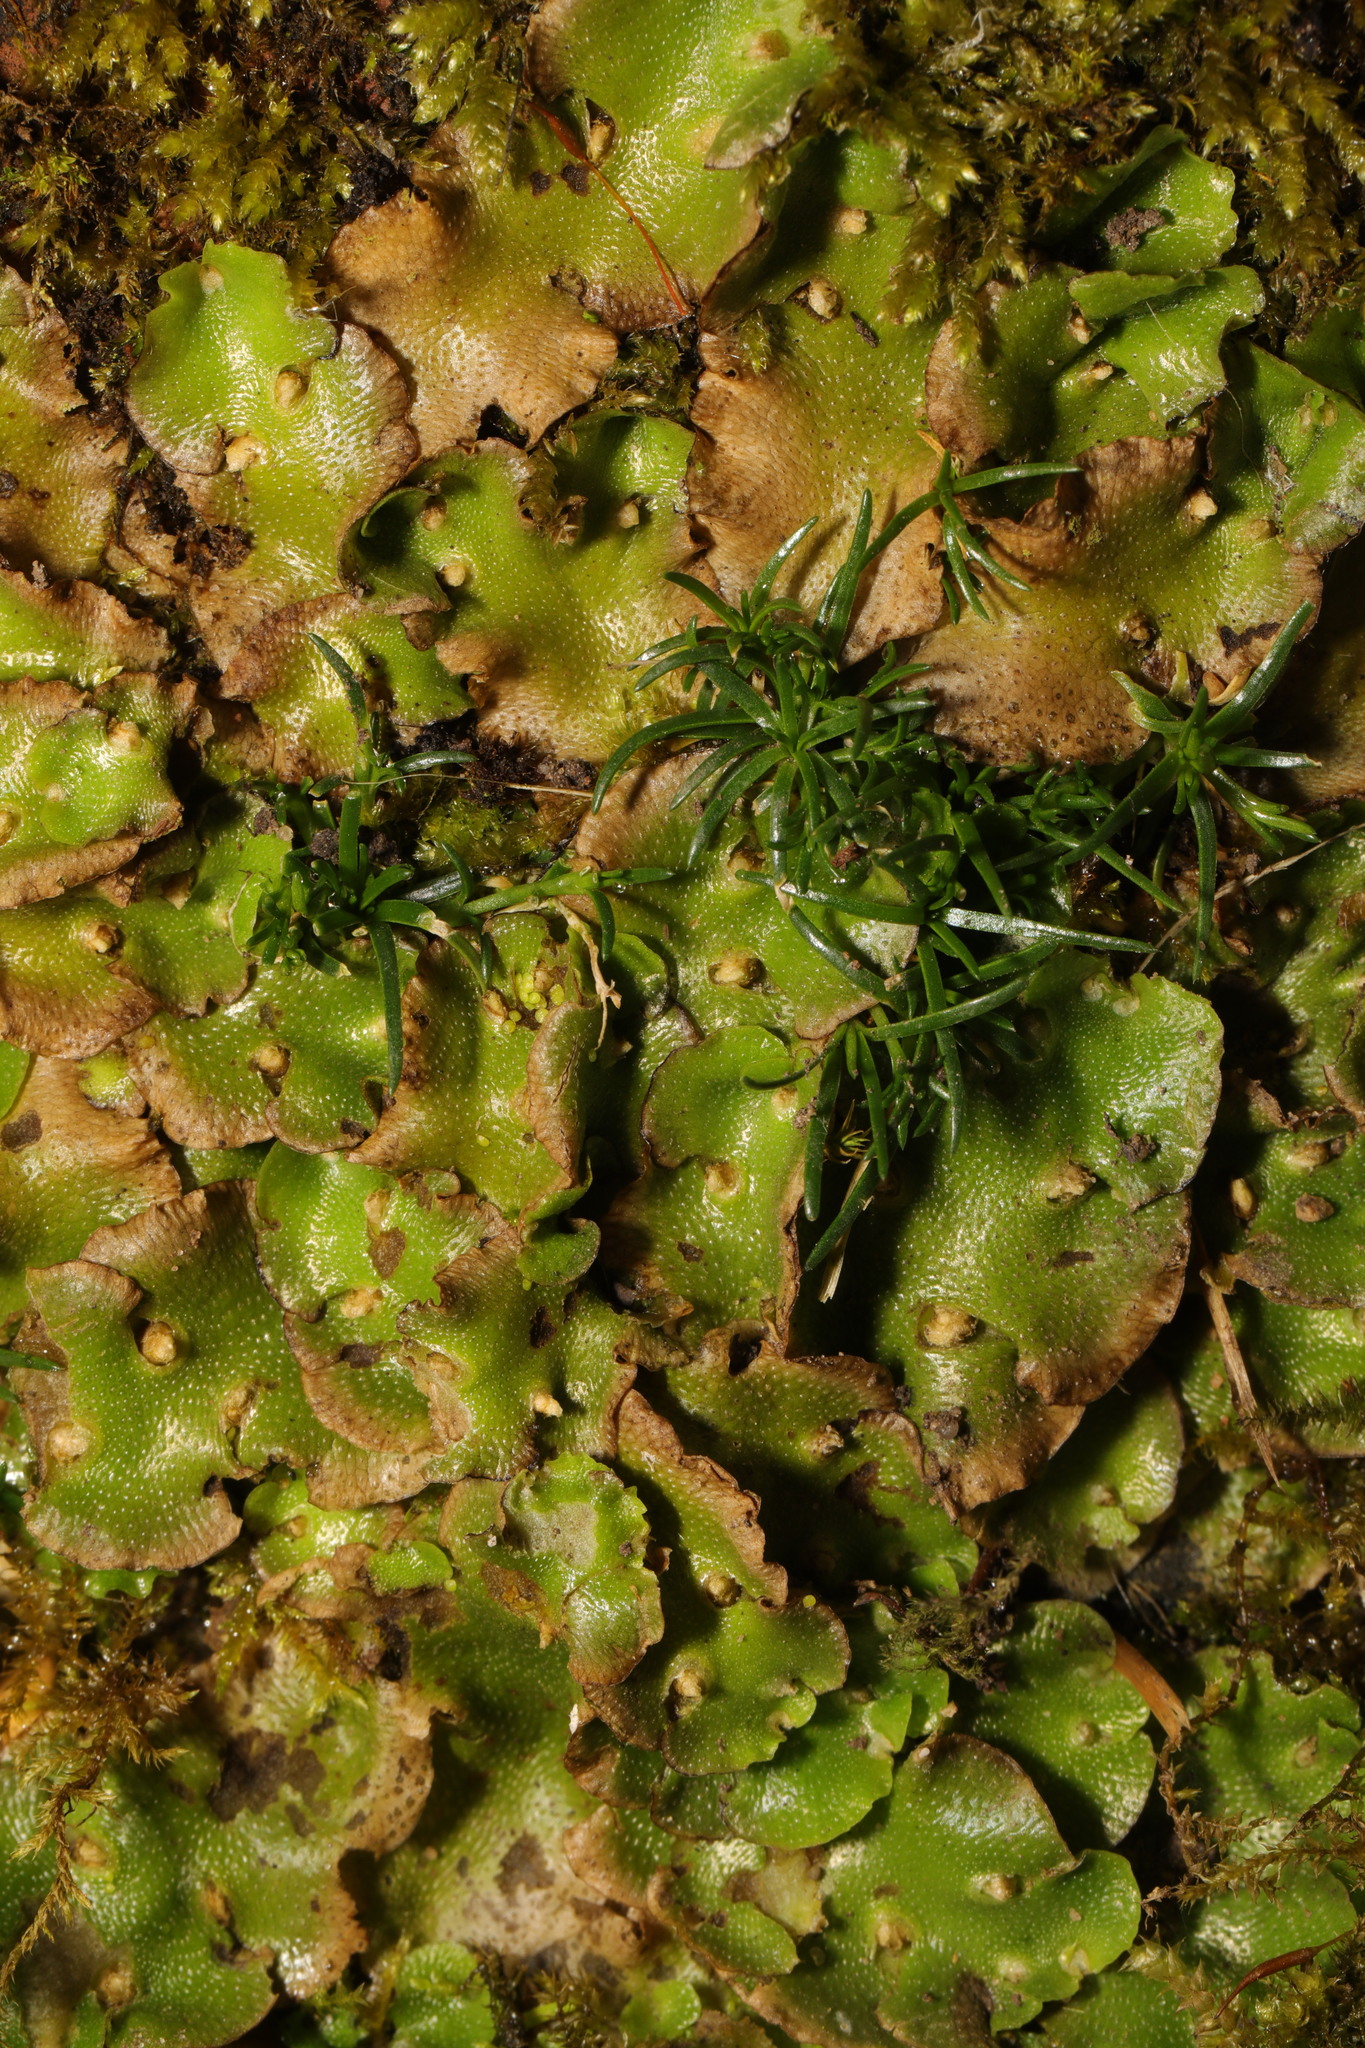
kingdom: Plantae
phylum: Marchantiophyta
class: Marchantiopsida
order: Lunulariales
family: Lunulariaceae
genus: Lunularia
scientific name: Lunularia cruciata
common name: Crescent-cup liverwort
